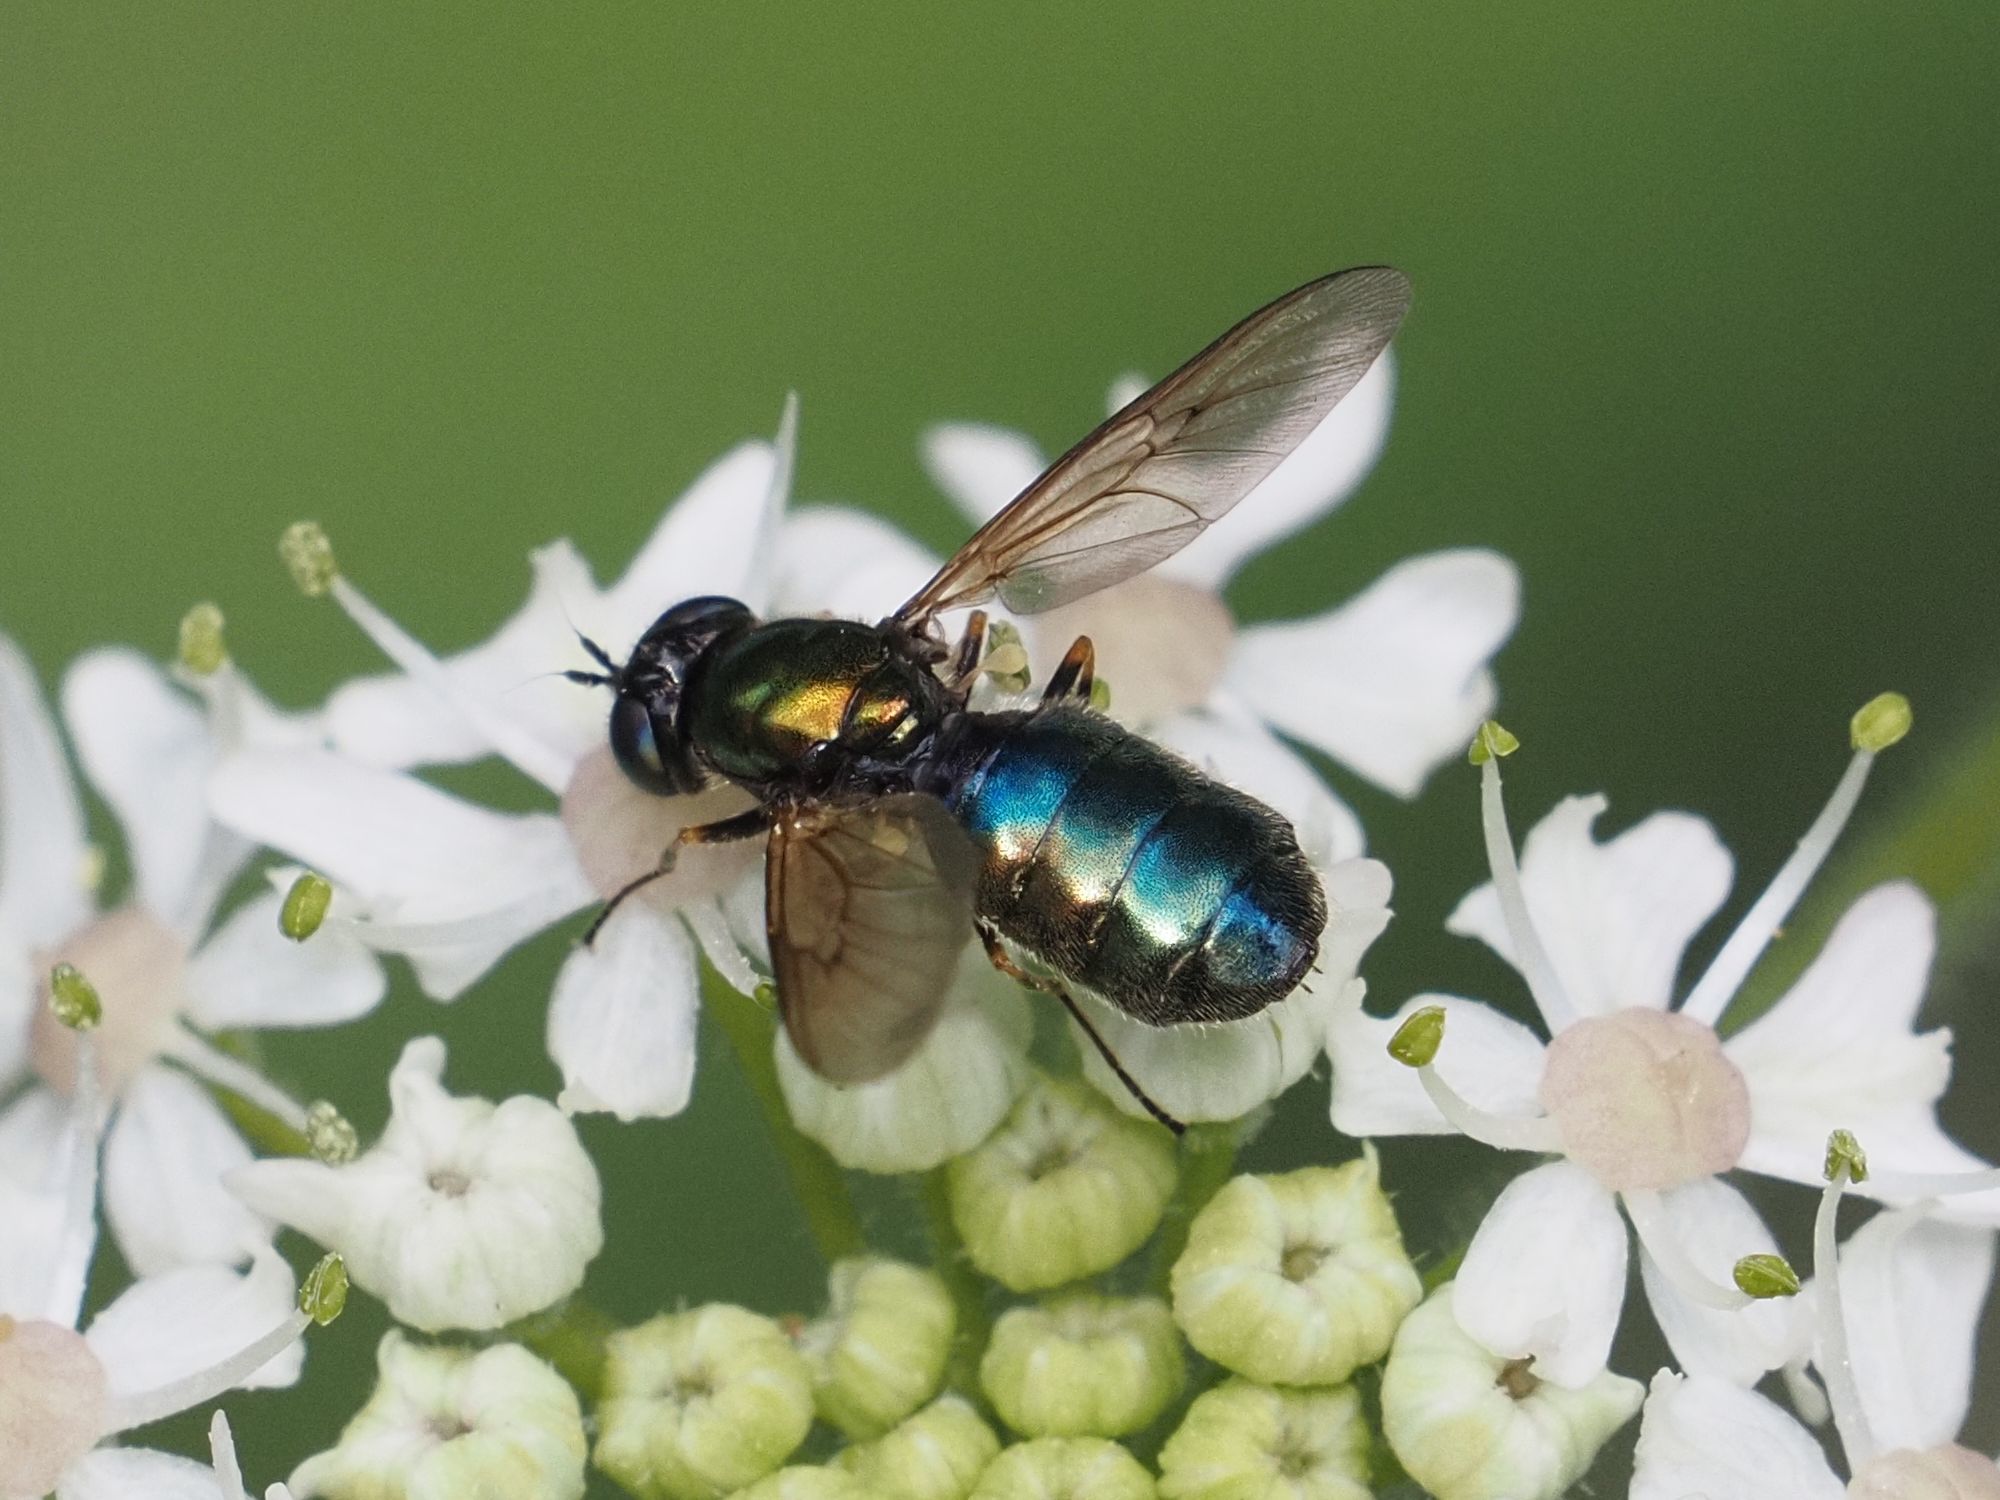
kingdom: Animalia
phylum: Arthropoda
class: Insecta
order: Diptera
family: Stratiomyidae
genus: Chloromyia
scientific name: Chloromyia formosa
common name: Soldier fly
